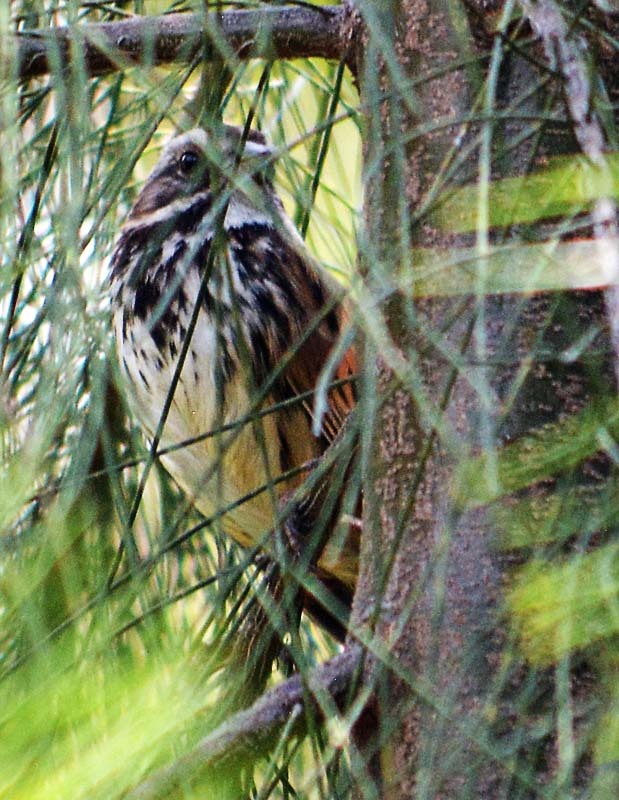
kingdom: Animalia
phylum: Chordata
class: Aves
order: Passeriformes
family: Passerellidae
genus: Melospiza
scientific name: Melospiza melodia
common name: Song sparrow
